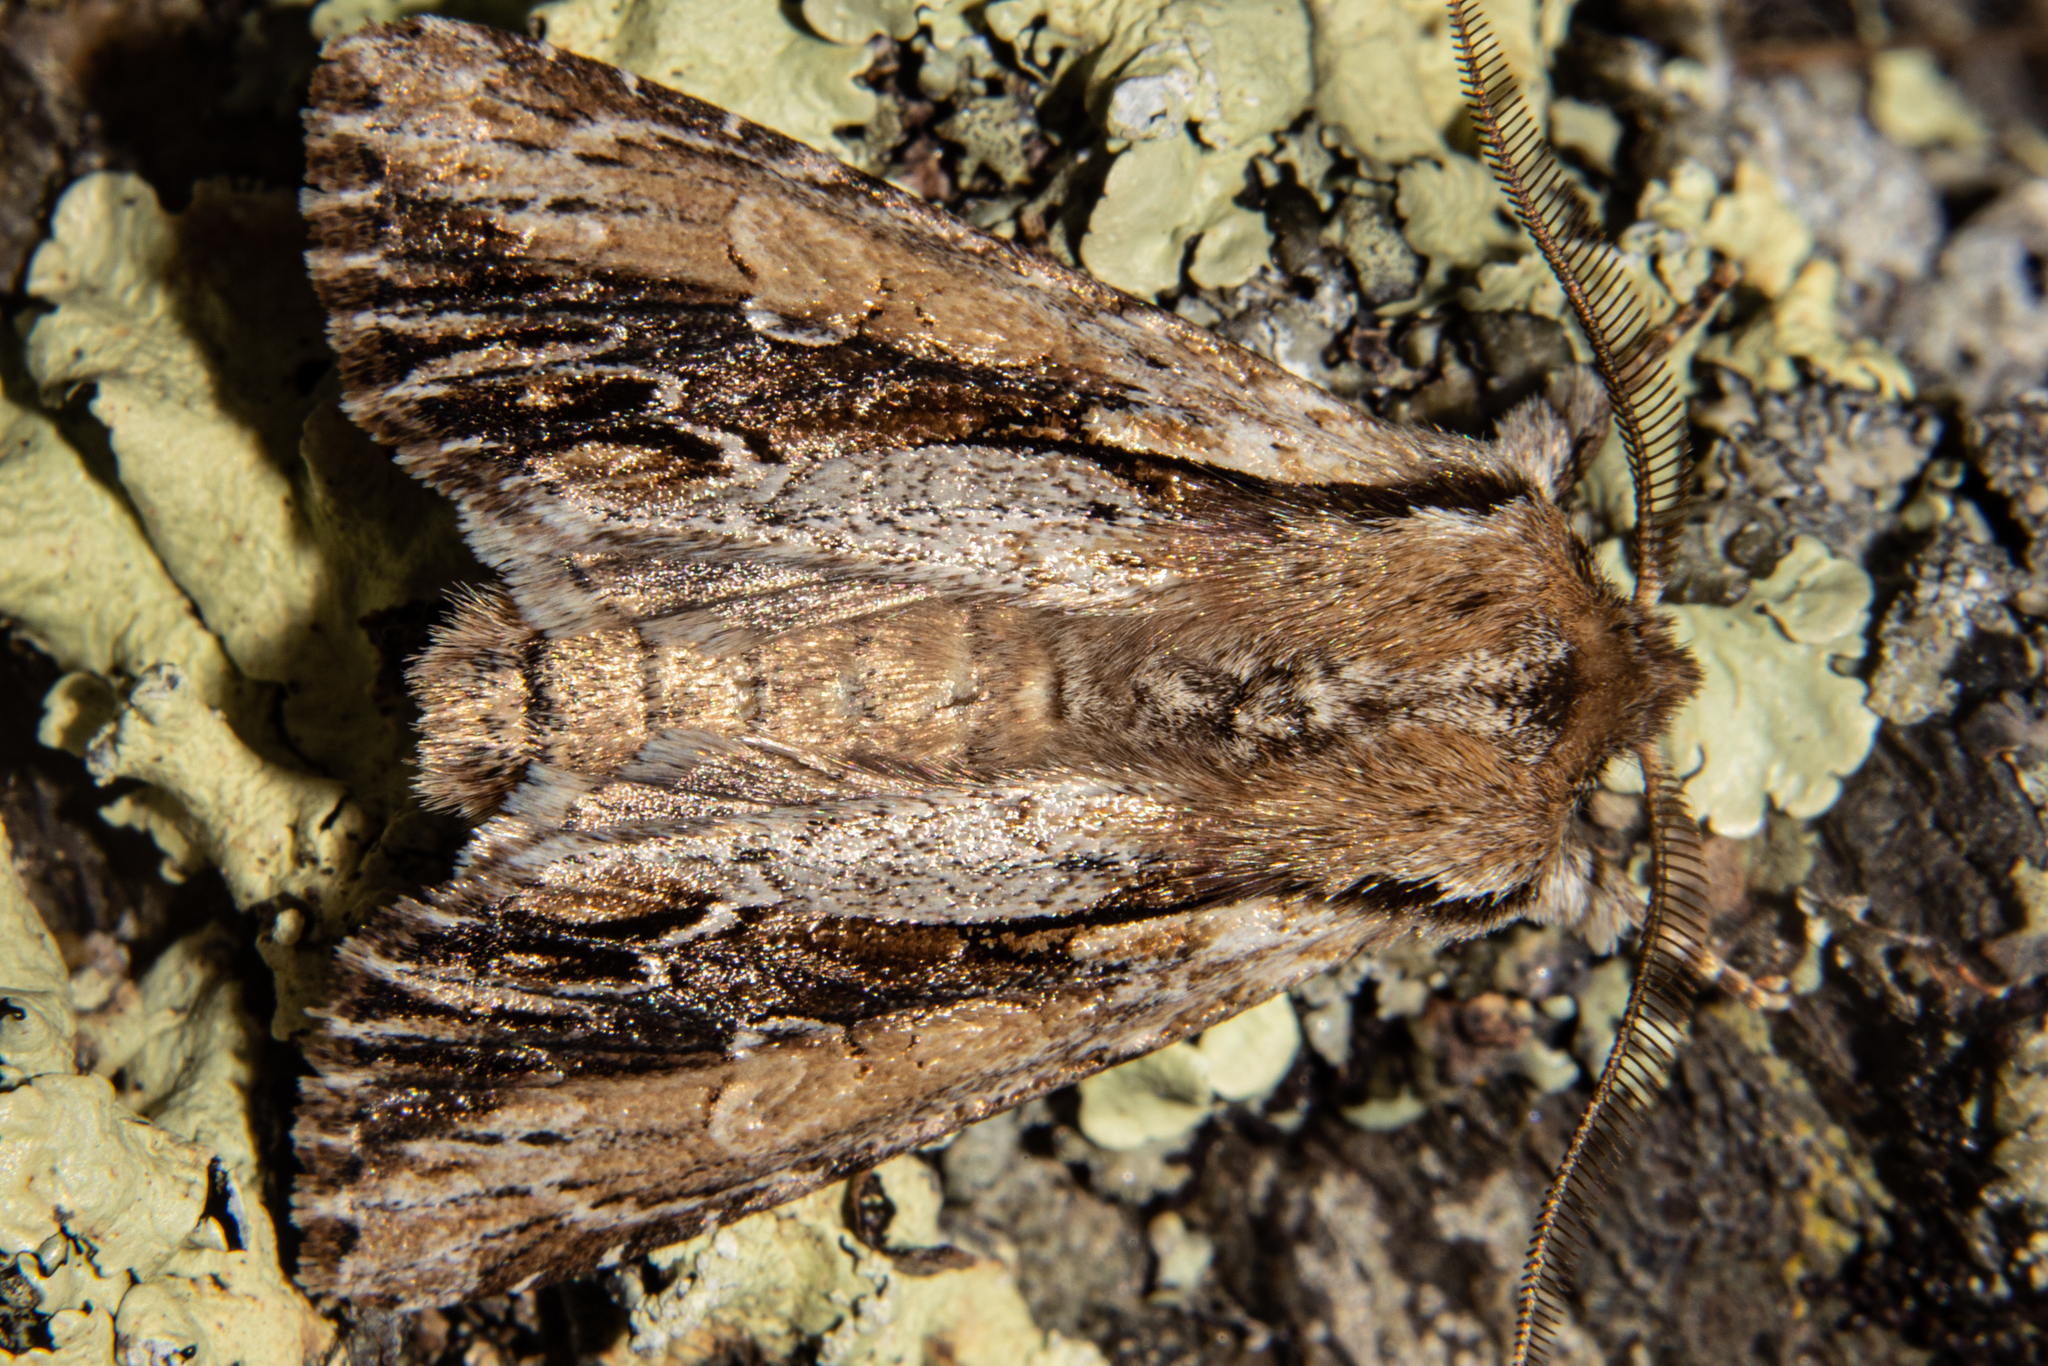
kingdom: Animalia
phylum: Arthropoda
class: Insecta
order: Lepidoptera
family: Noctuidae
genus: Ichneutica
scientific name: Ichneutica
